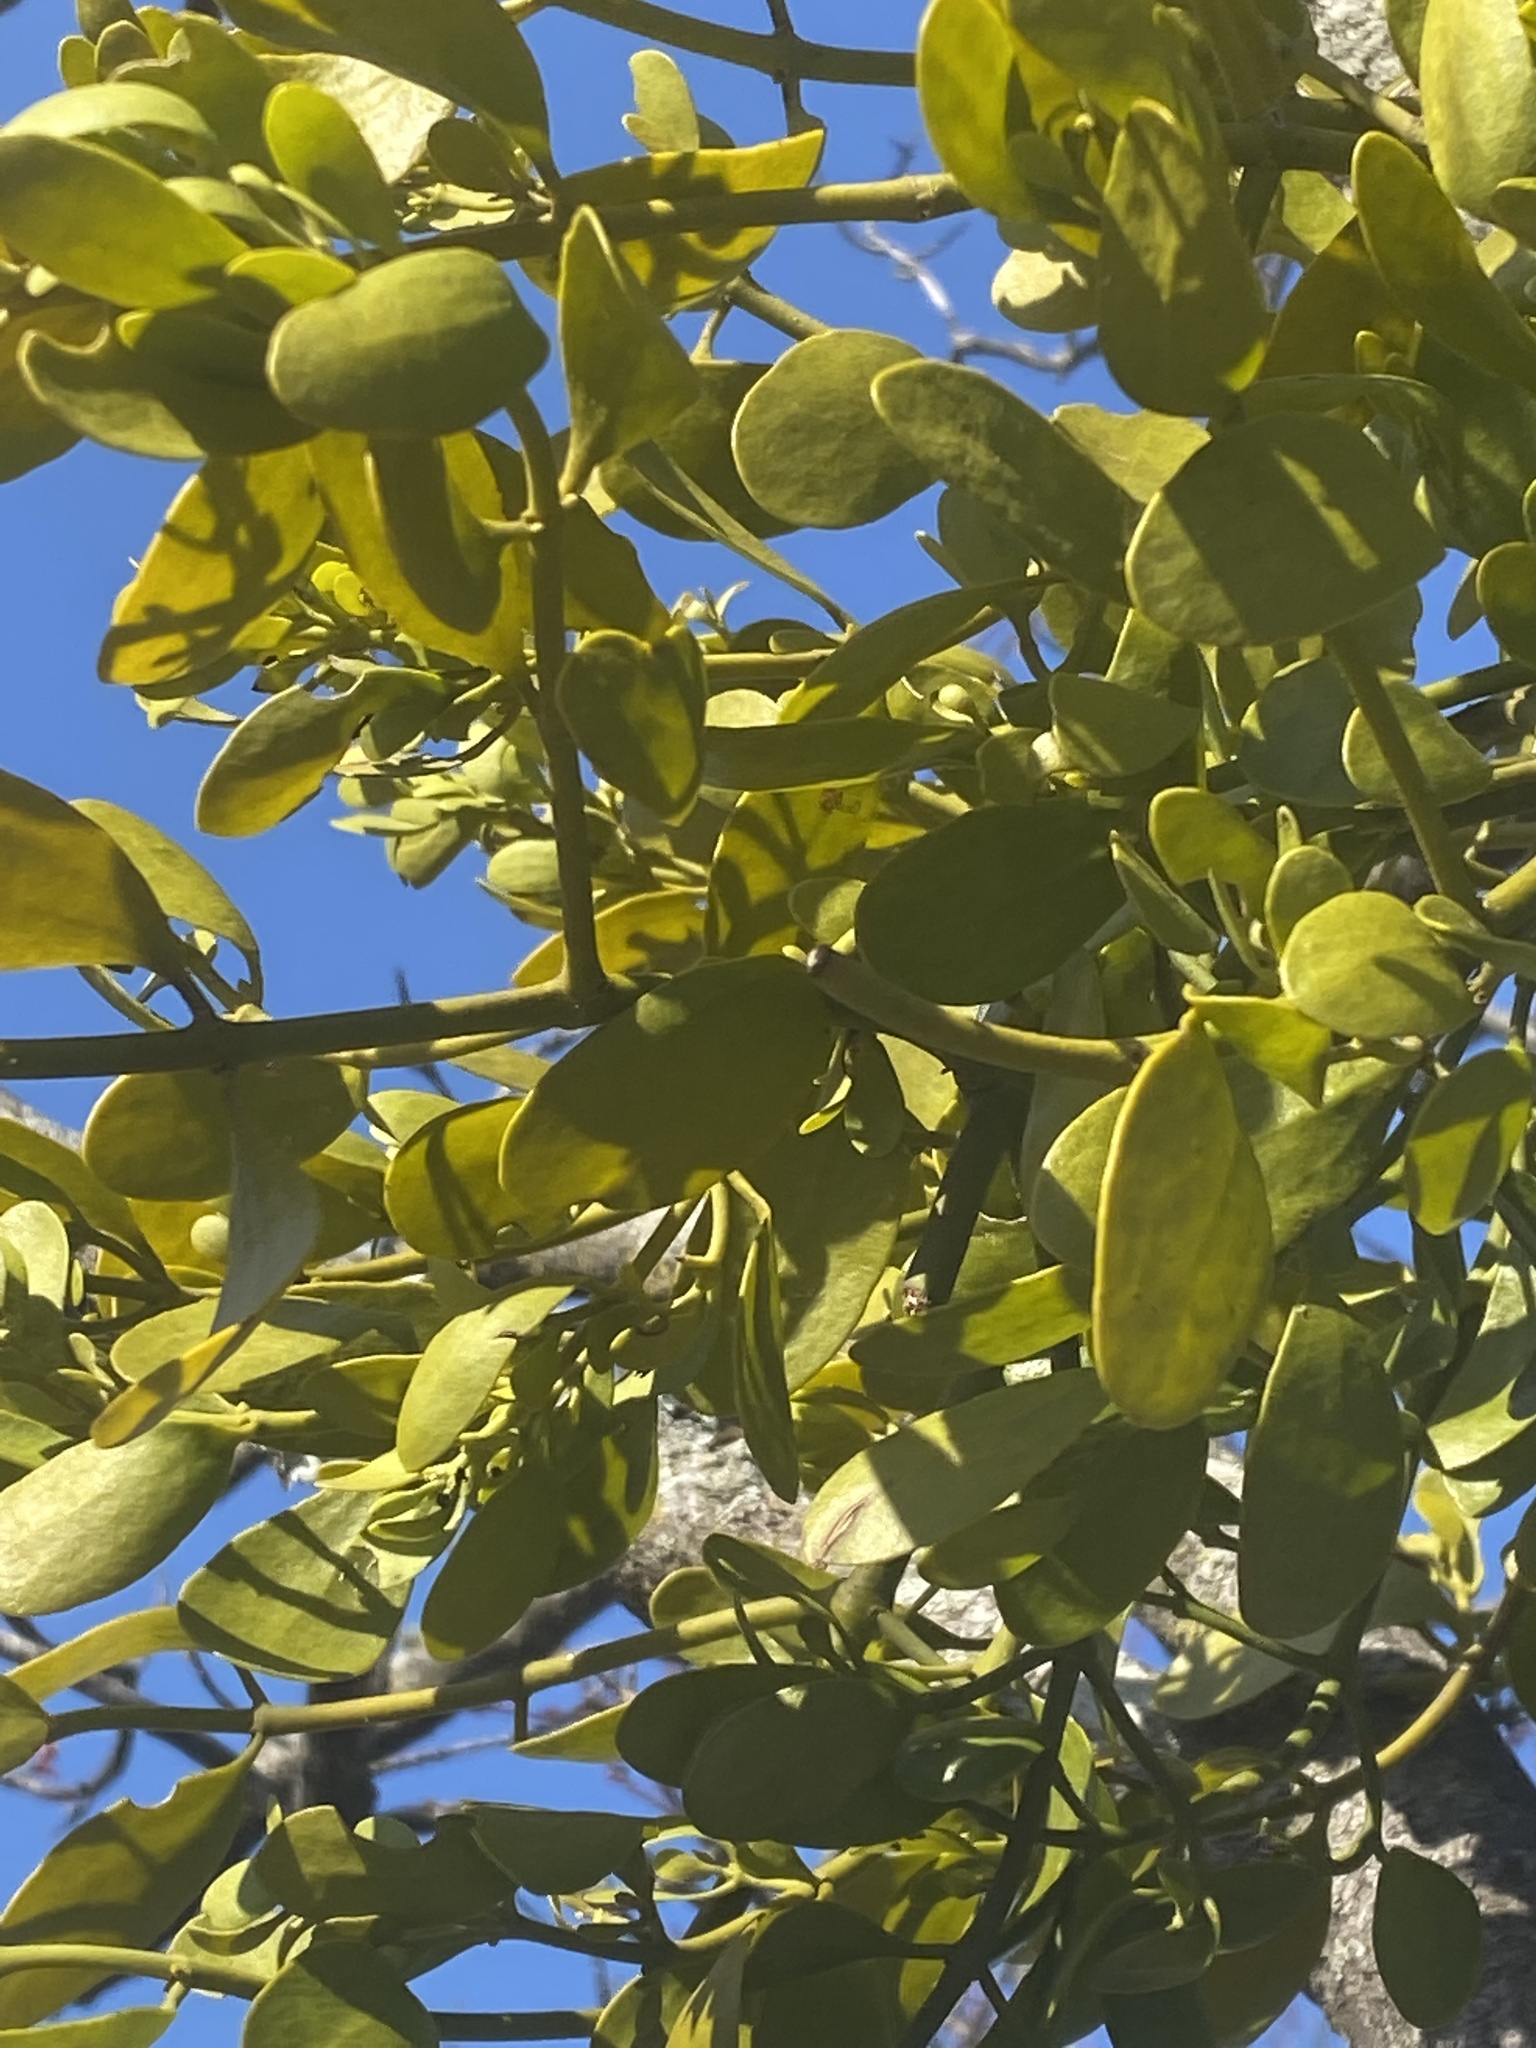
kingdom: Plantae
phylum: Tracheophyta
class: Magnoliopsida
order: Santalales
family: Viscaceae
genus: Phoradendron
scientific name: Phoradendron leucarpum
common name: Pacific mistletoe
